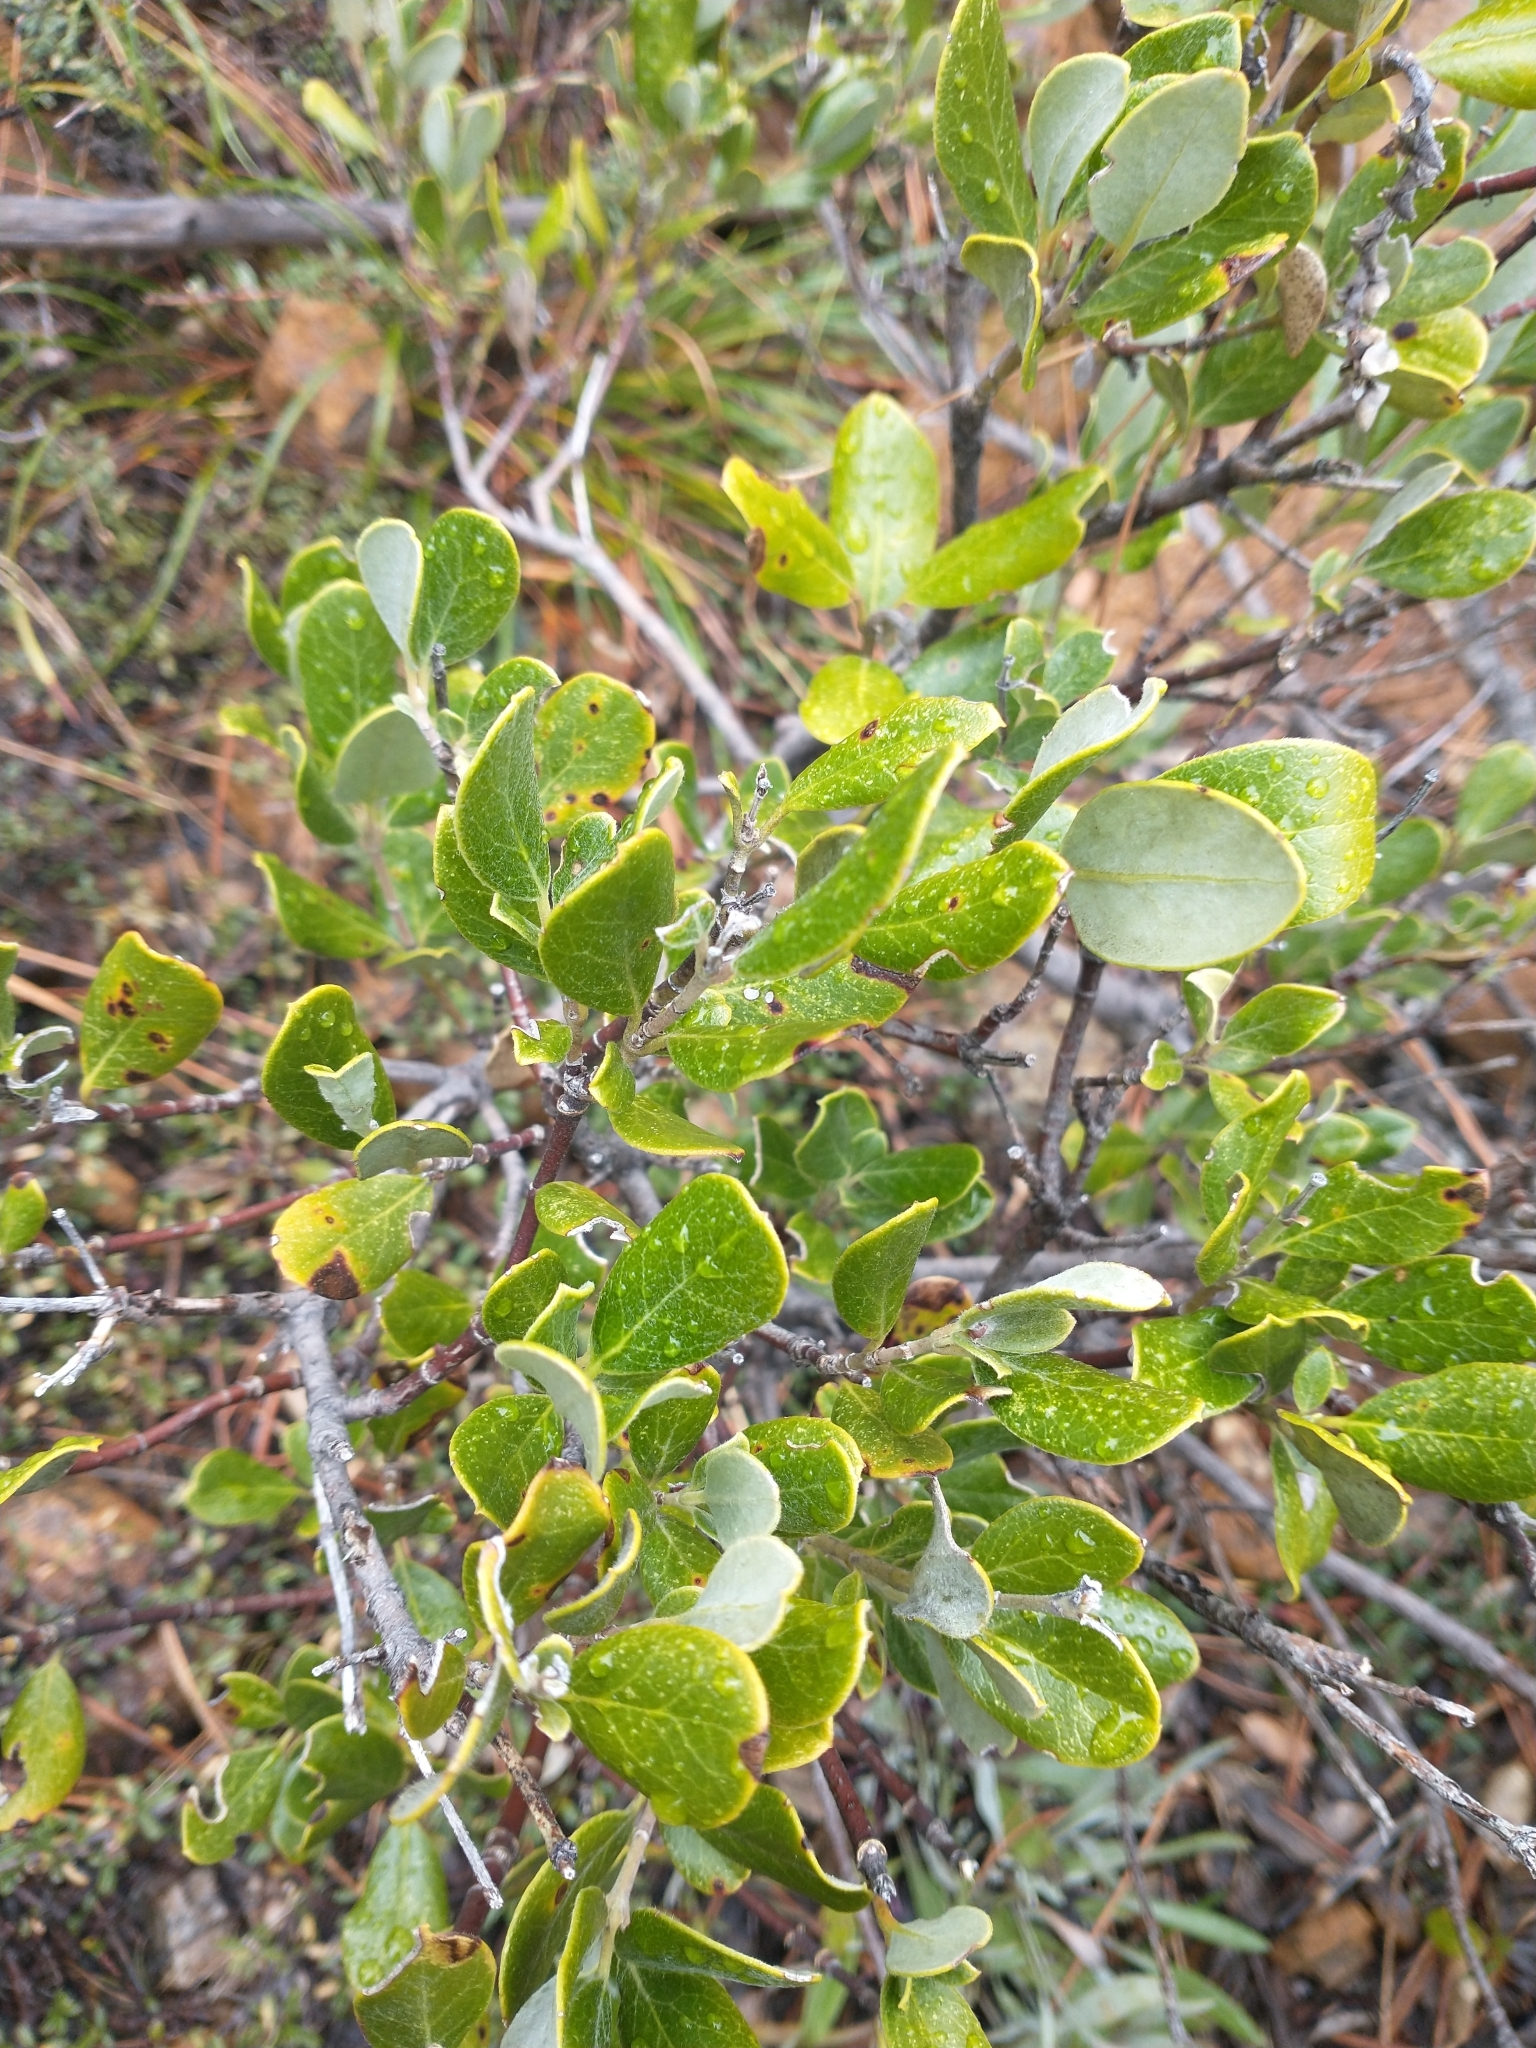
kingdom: Plantae
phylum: Tracheophyta
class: Magnoliopsida
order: Garryales
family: Garryaceae
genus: Garrya
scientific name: Garrya buxifolia
